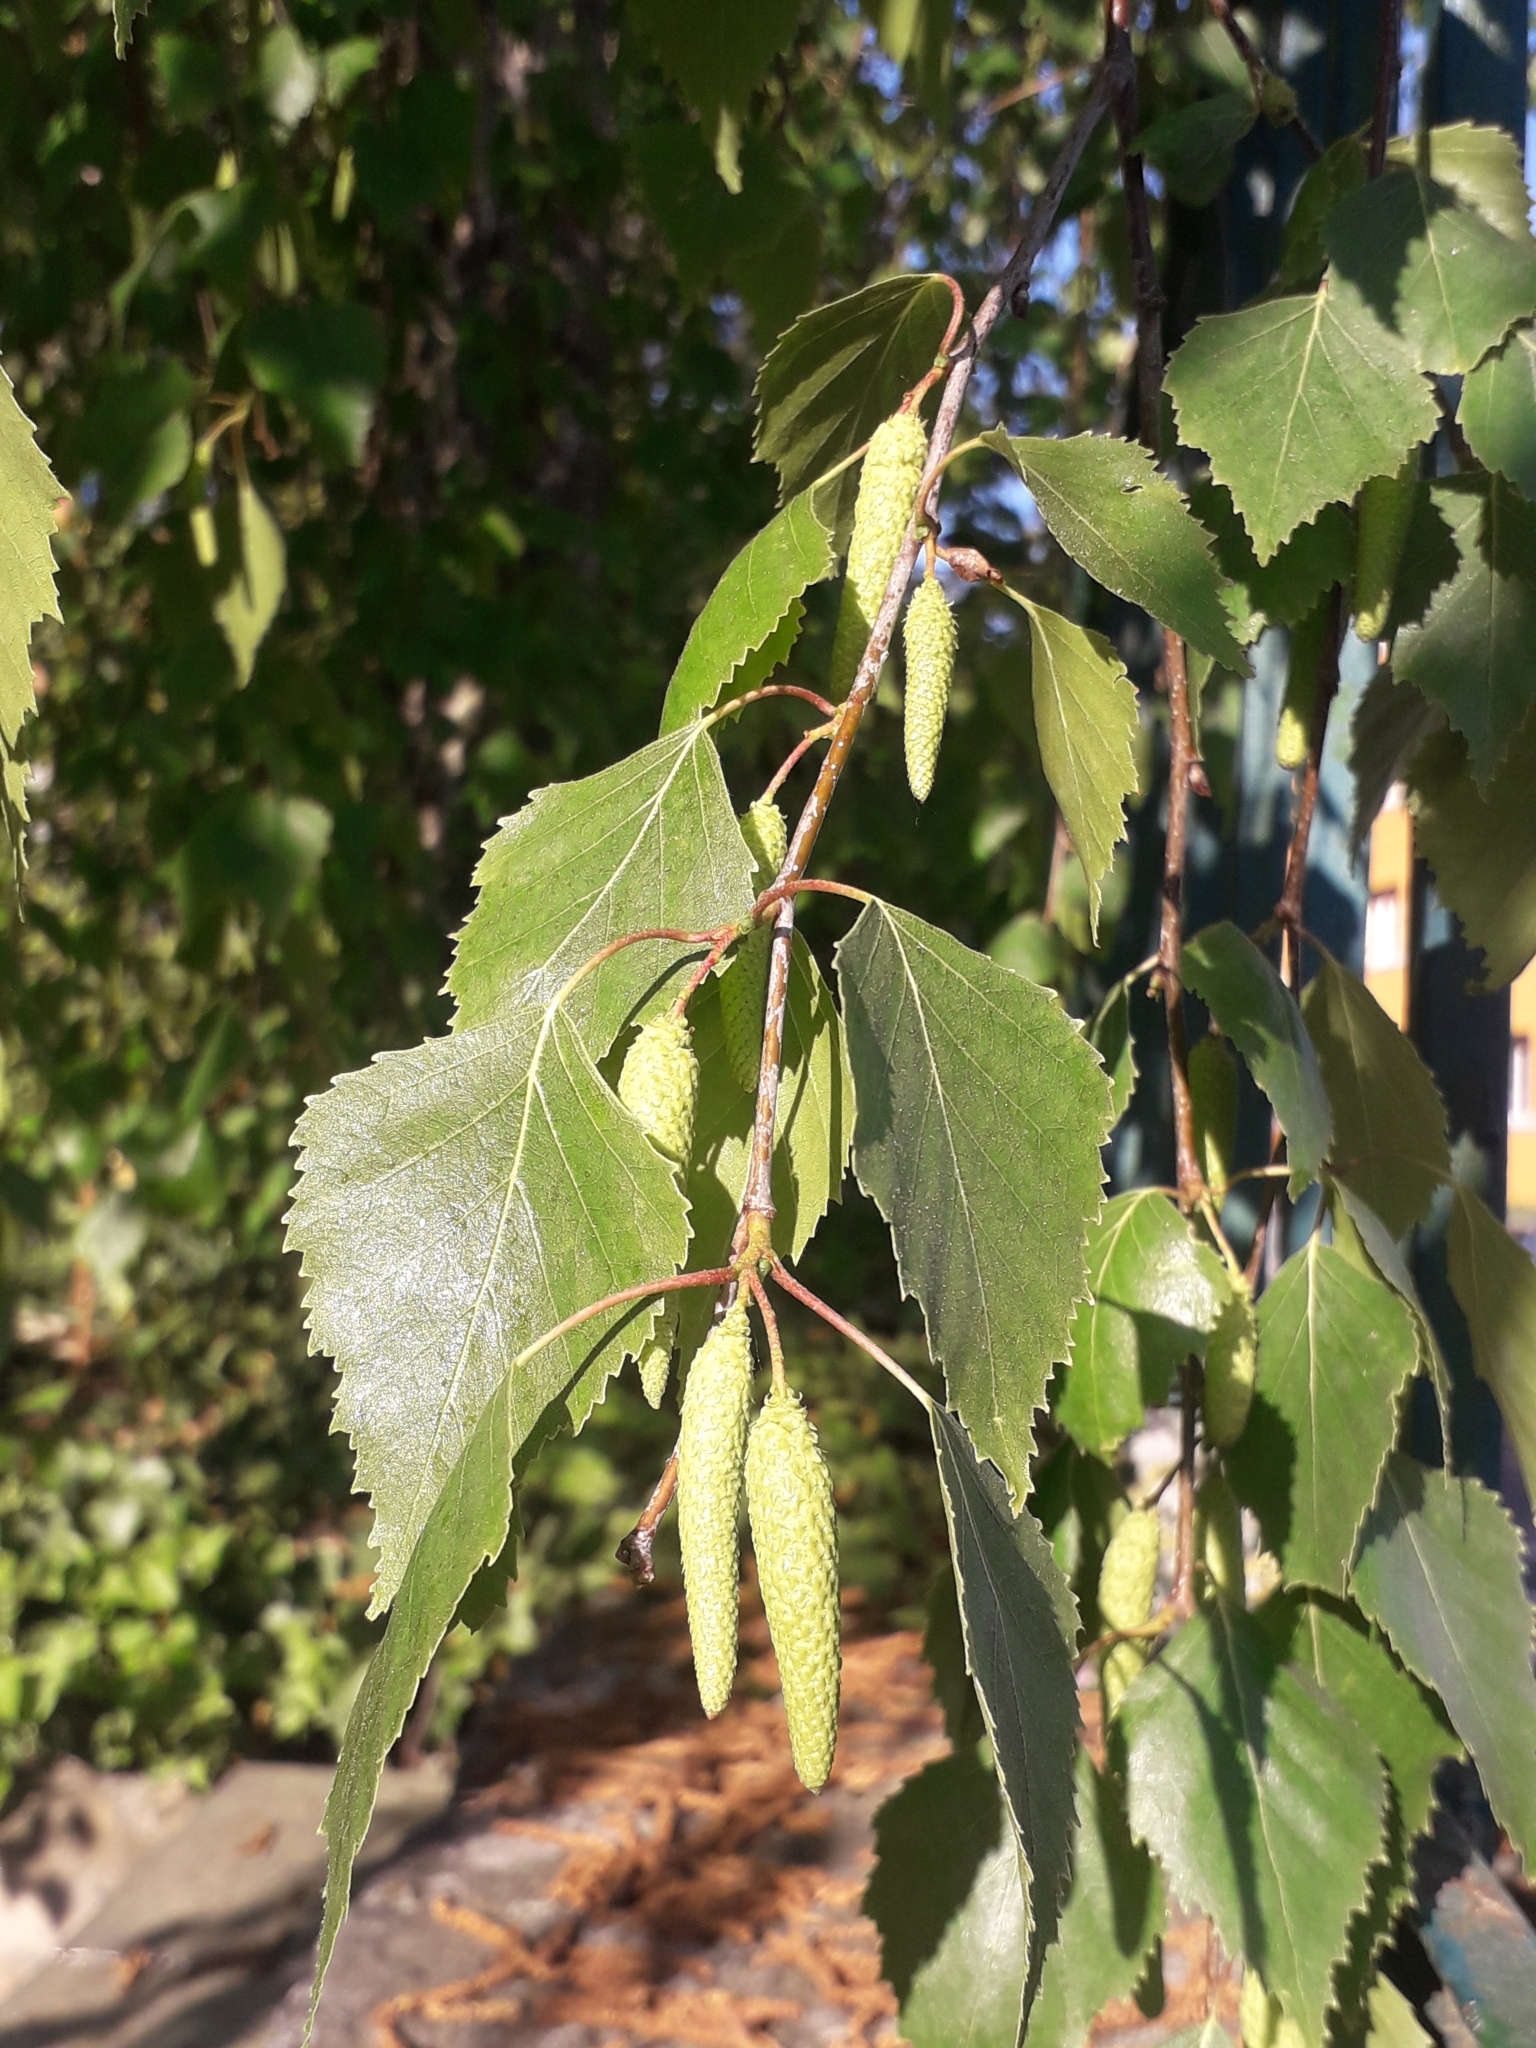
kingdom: Plantae
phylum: Tracheophyta
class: Magnoliopsida
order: Fagales
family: Betulaceae
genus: Betula
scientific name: Betula pendula
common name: Silver birch
